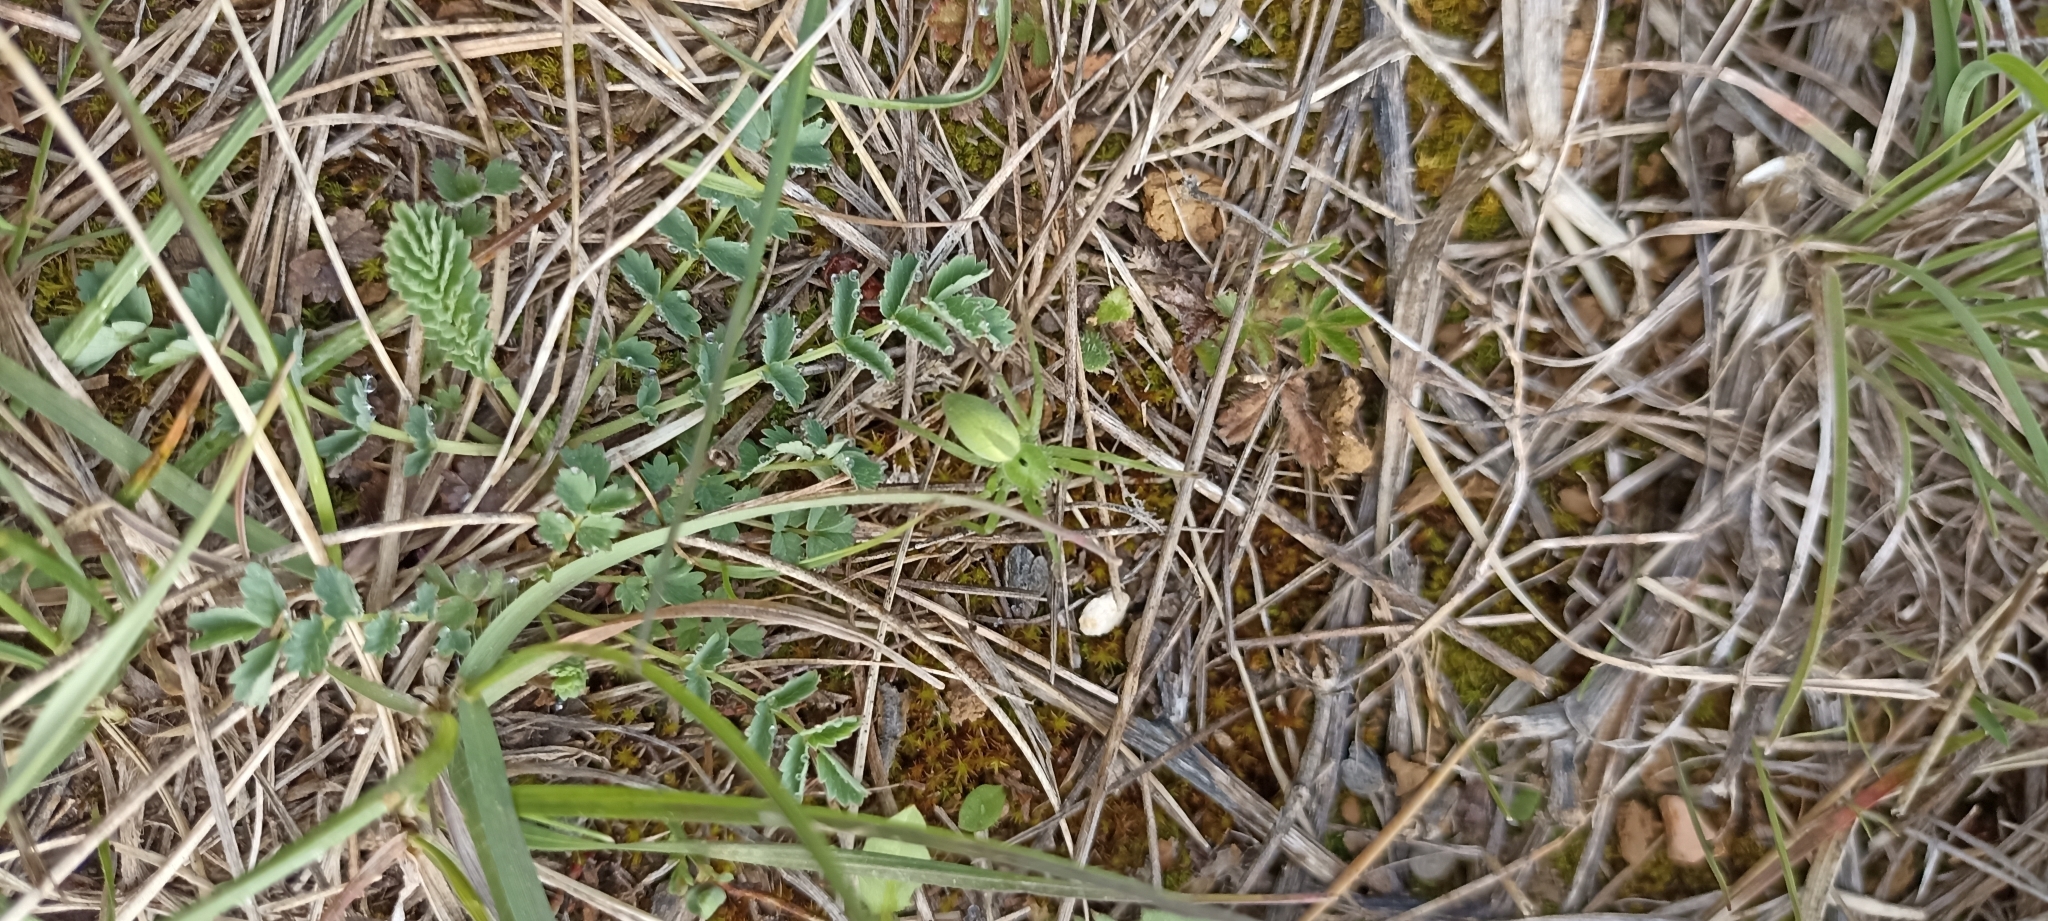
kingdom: Animalia
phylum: Arthropoda
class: Arachnida
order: Araneae
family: Sparassidae
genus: Micrommata
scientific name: Micrommata ligurina
